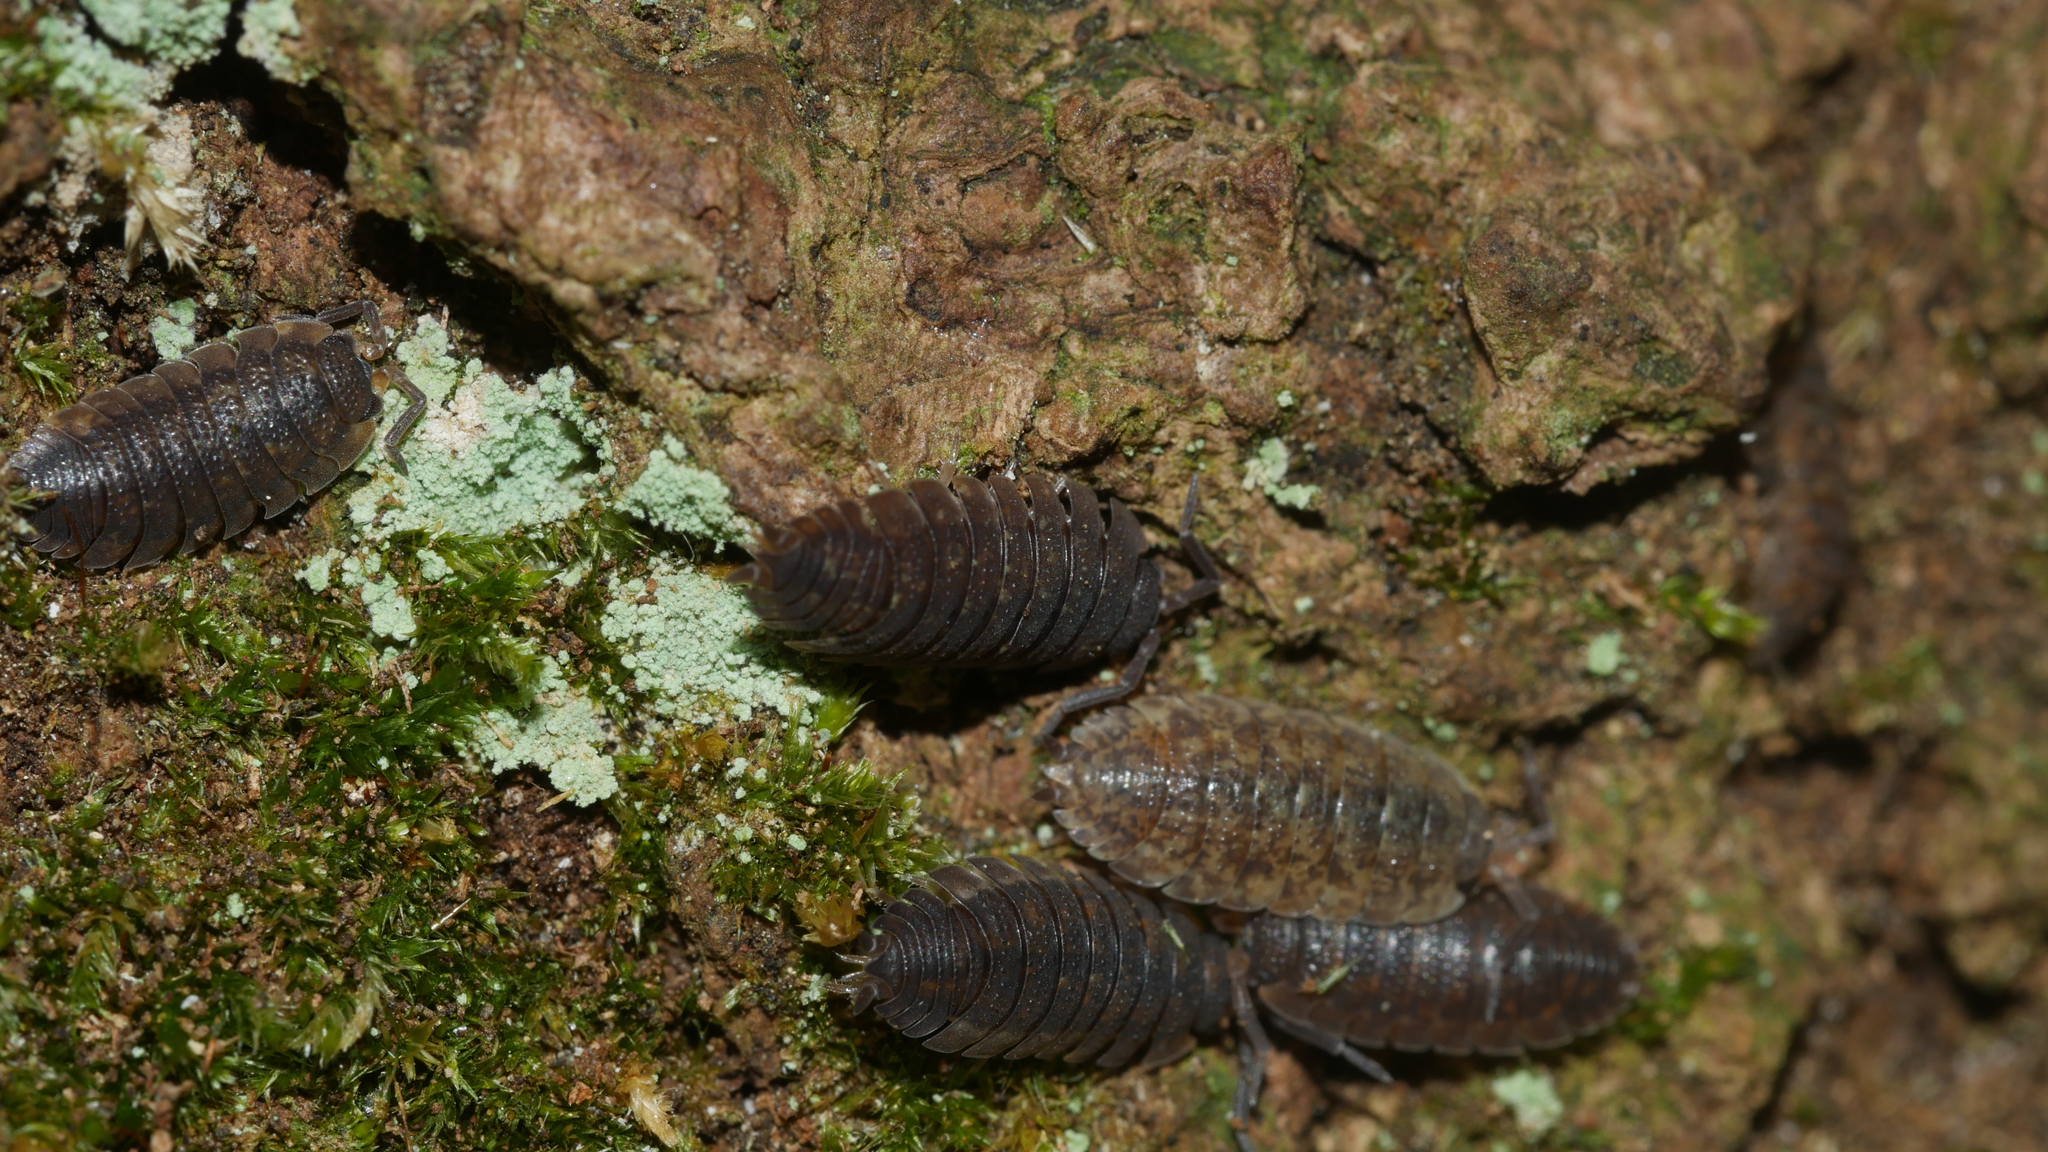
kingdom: Animalia
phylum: Arthropoda
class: Malacostraca
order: Isopoda
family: Porcellionidae
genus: Porcellio
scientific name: Porcellio scaber
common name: Common rough woodlouse
